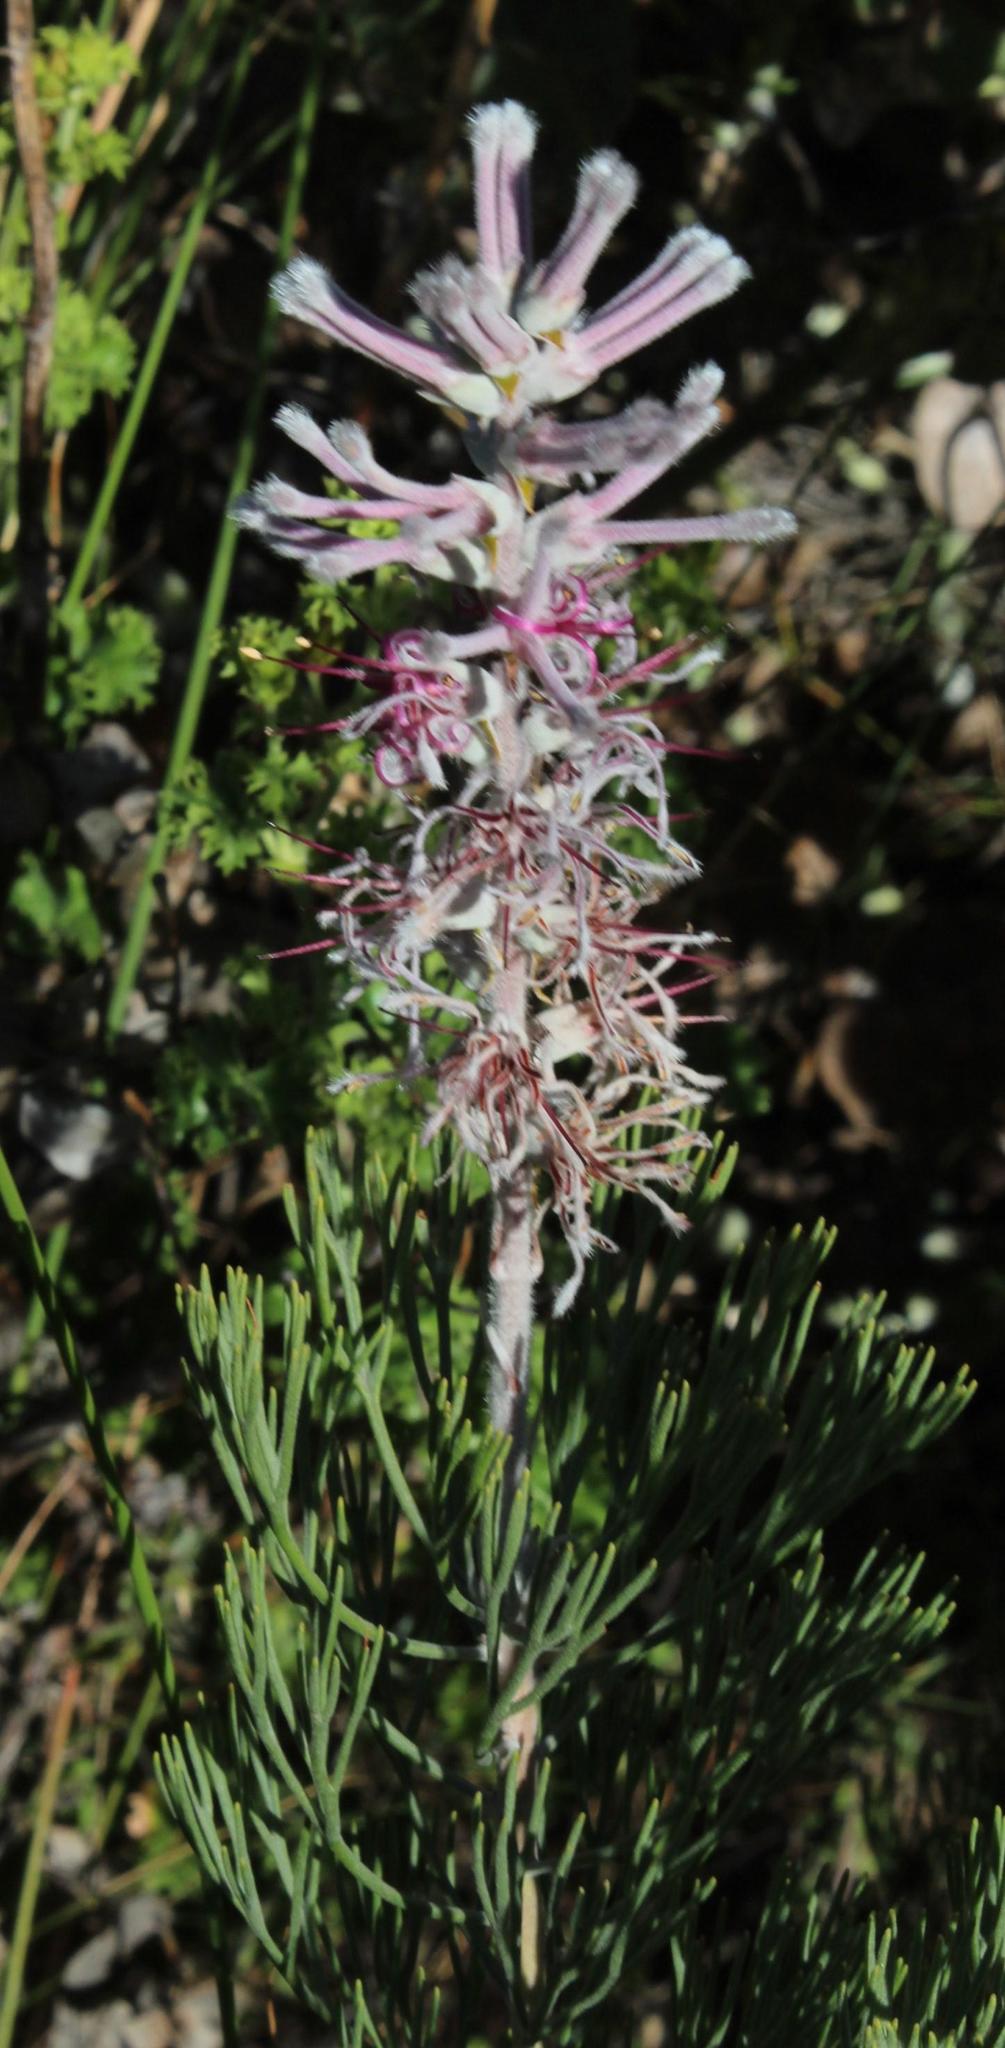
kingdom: Plantae
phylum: Tracheophyta
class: Magnoliopsida
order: Proteales
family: Proteaceae
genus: Paranomus
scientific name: Paranomus bracteolaris
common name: Bokkeveld tree sceptre
